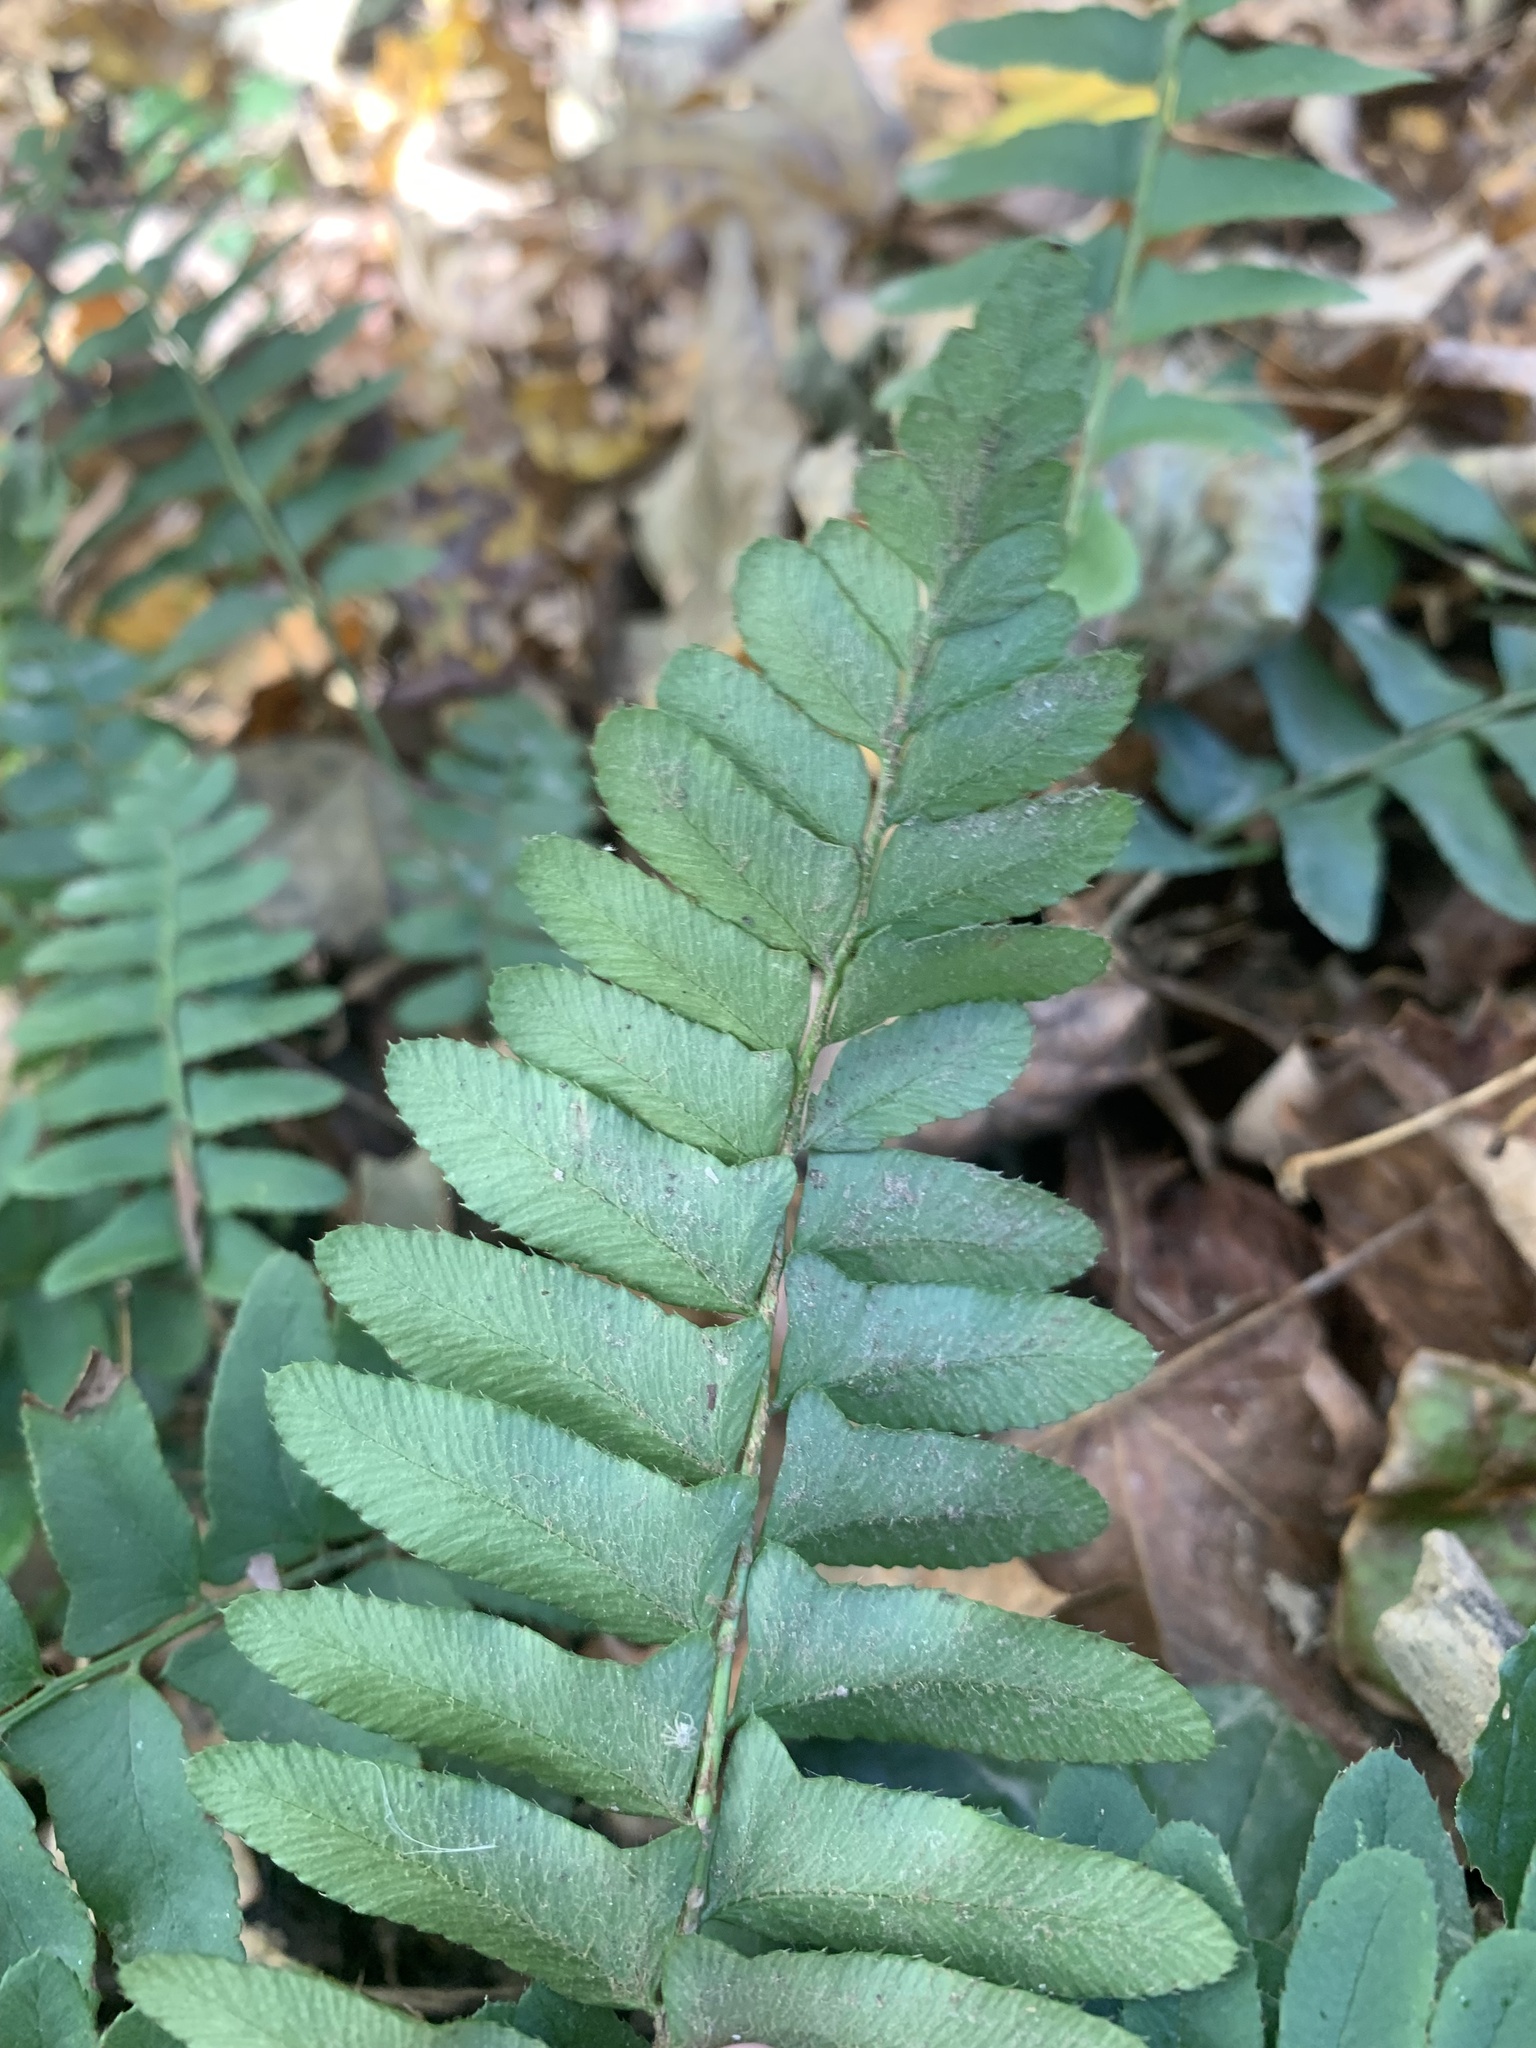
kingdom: Plantae
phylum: Tracheophyta
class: Polypodiopsida
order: Polypodiales
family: Dryopteridaceae
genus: Polystichum
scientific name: Polystichum acrostichoides
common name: Christmas fern
